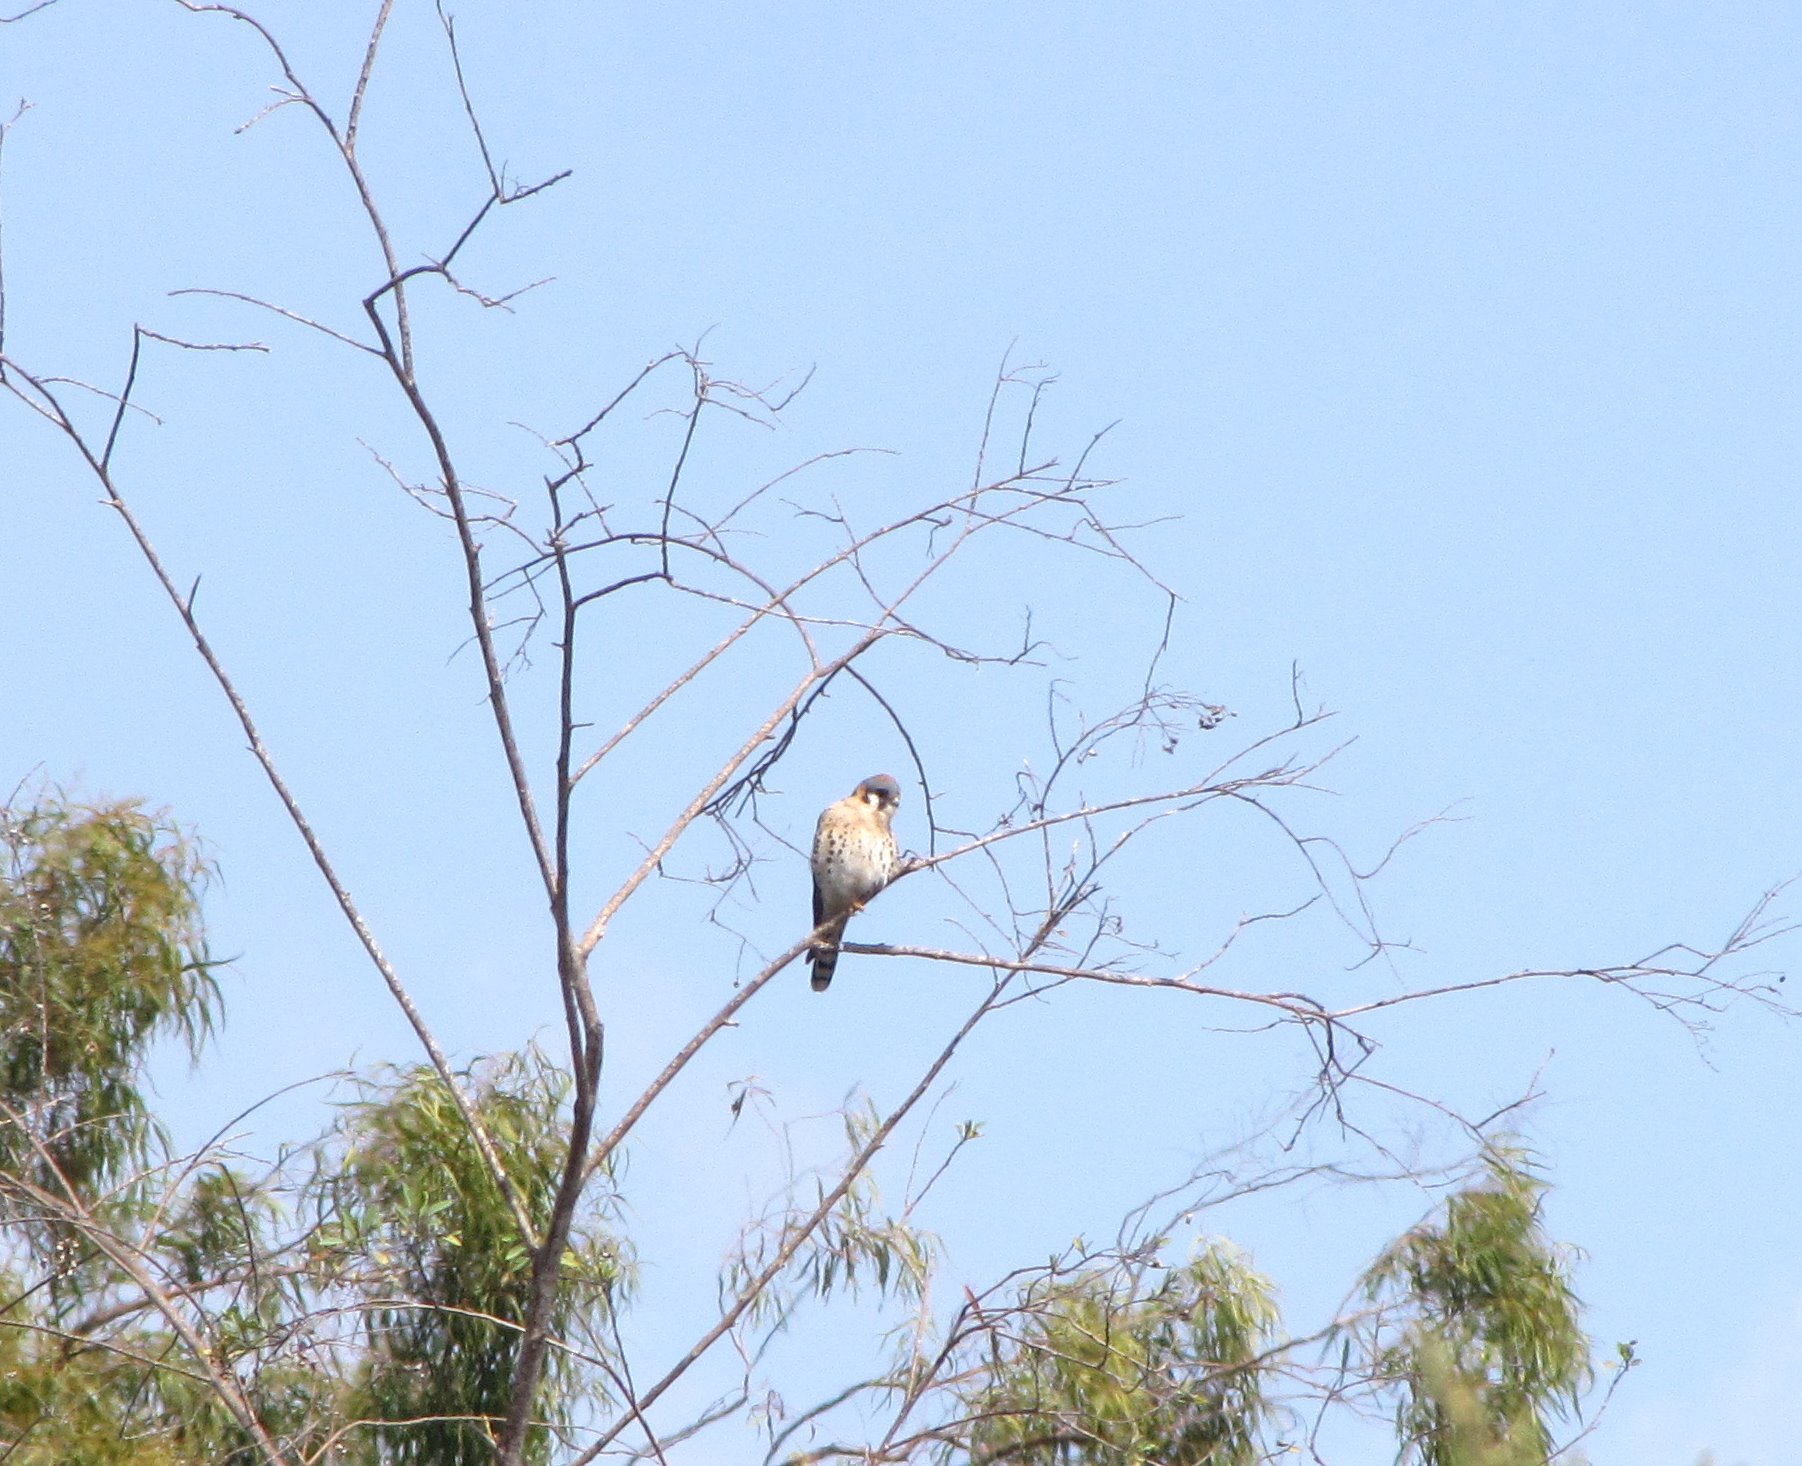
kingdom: Animalia
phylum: Chordata
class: Aves
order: Falconiformes
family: Falconidae
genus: Falco
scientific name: Falco sparverius
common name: American kestrel
